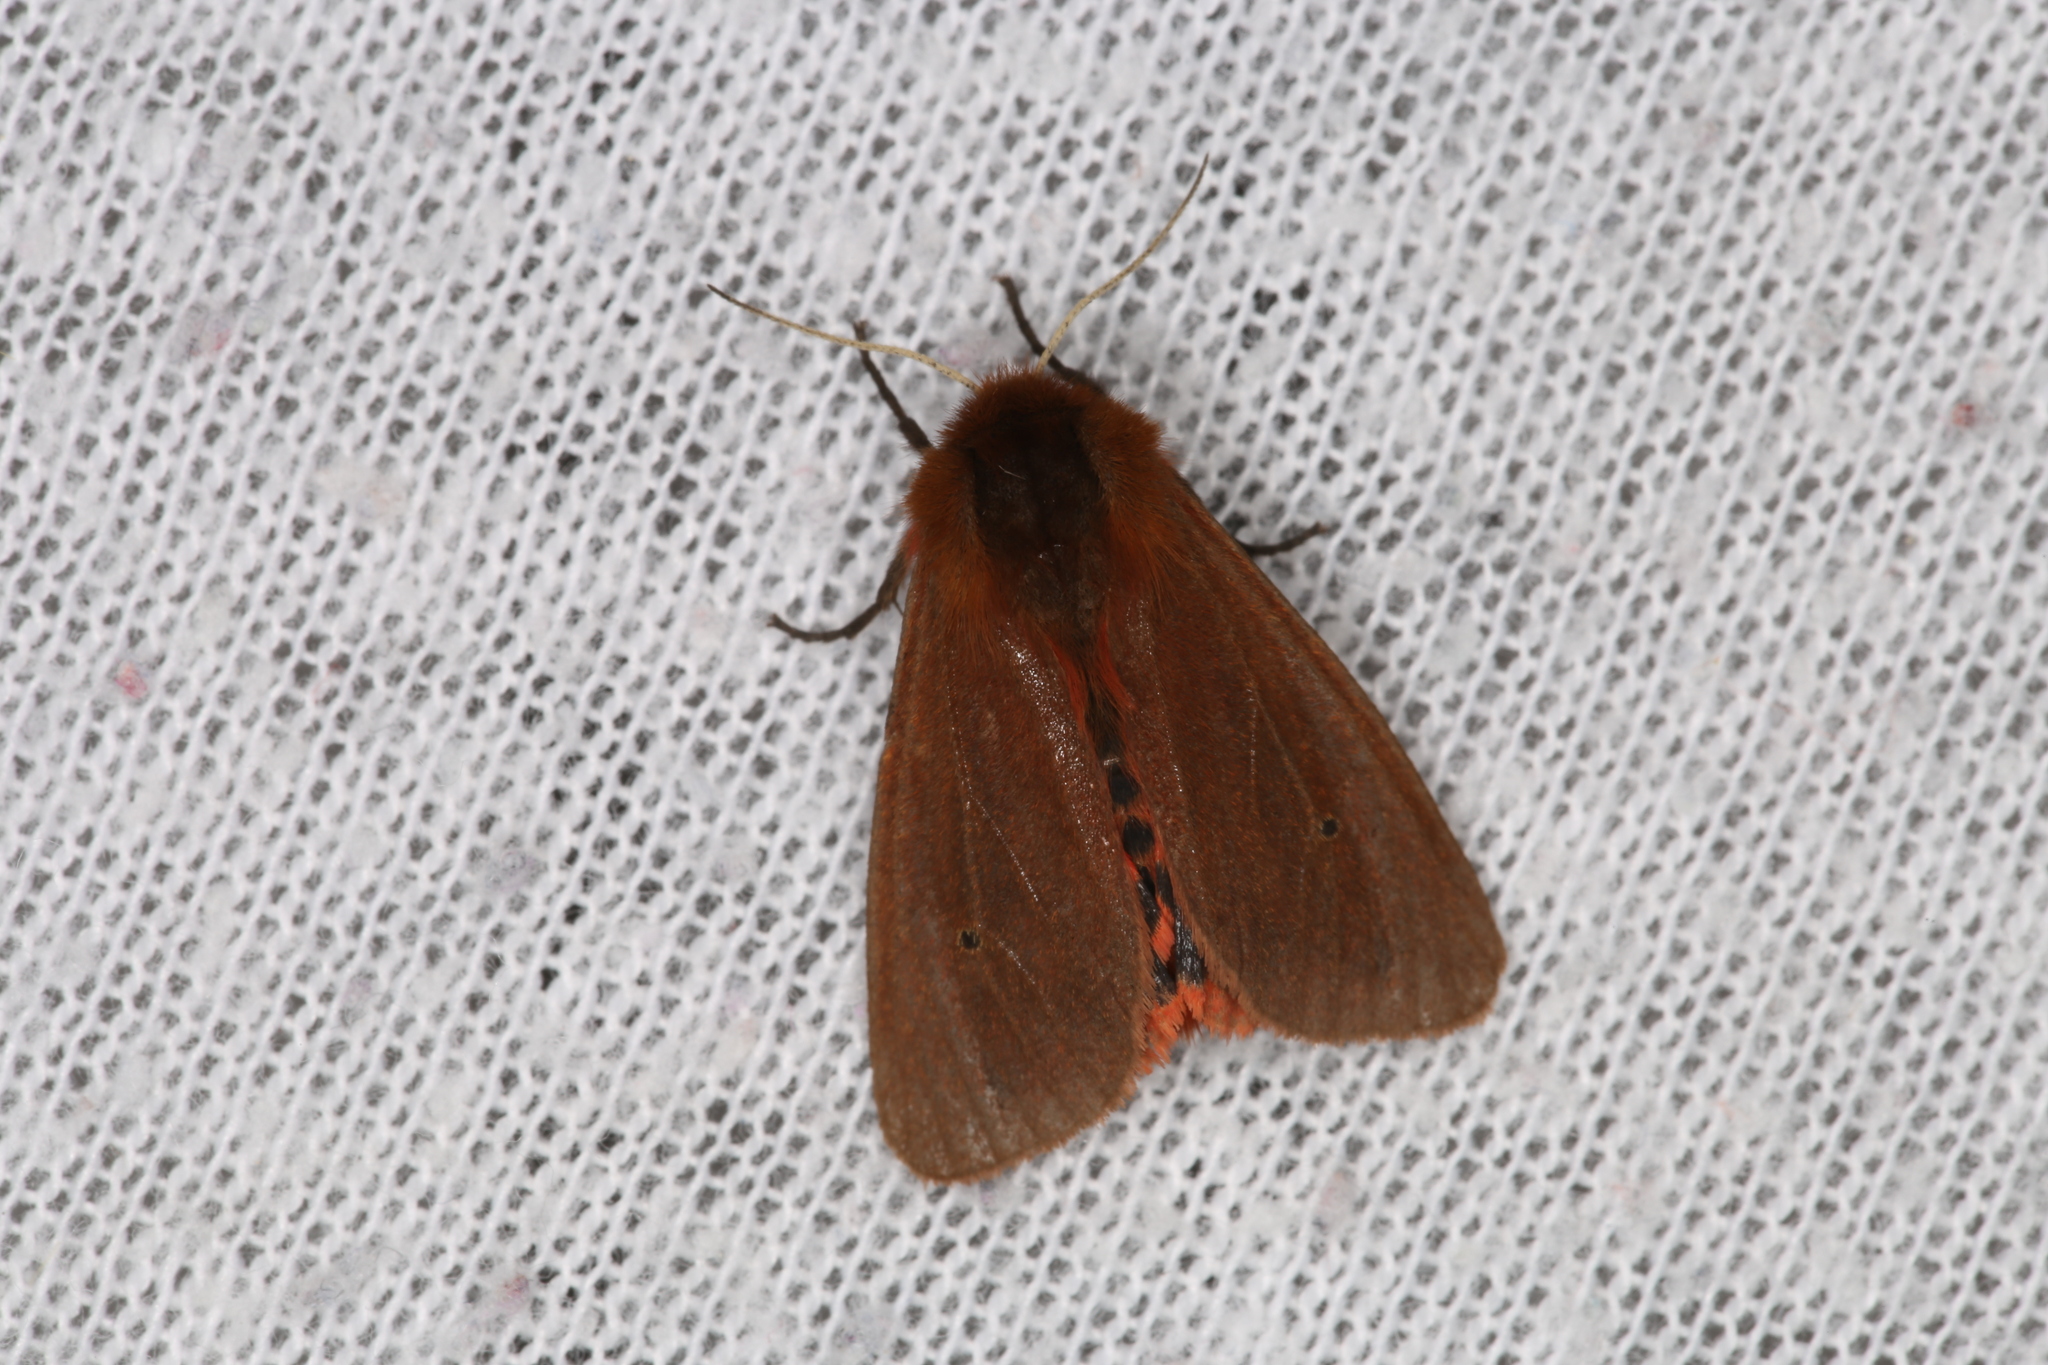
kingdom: Animalia
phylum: Arthropoda
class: Insecta
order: Lepidoptera
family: Erebidae
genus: Phragmatobia
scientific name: Phragmatobia fuliginosa
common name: Ruby tiger
